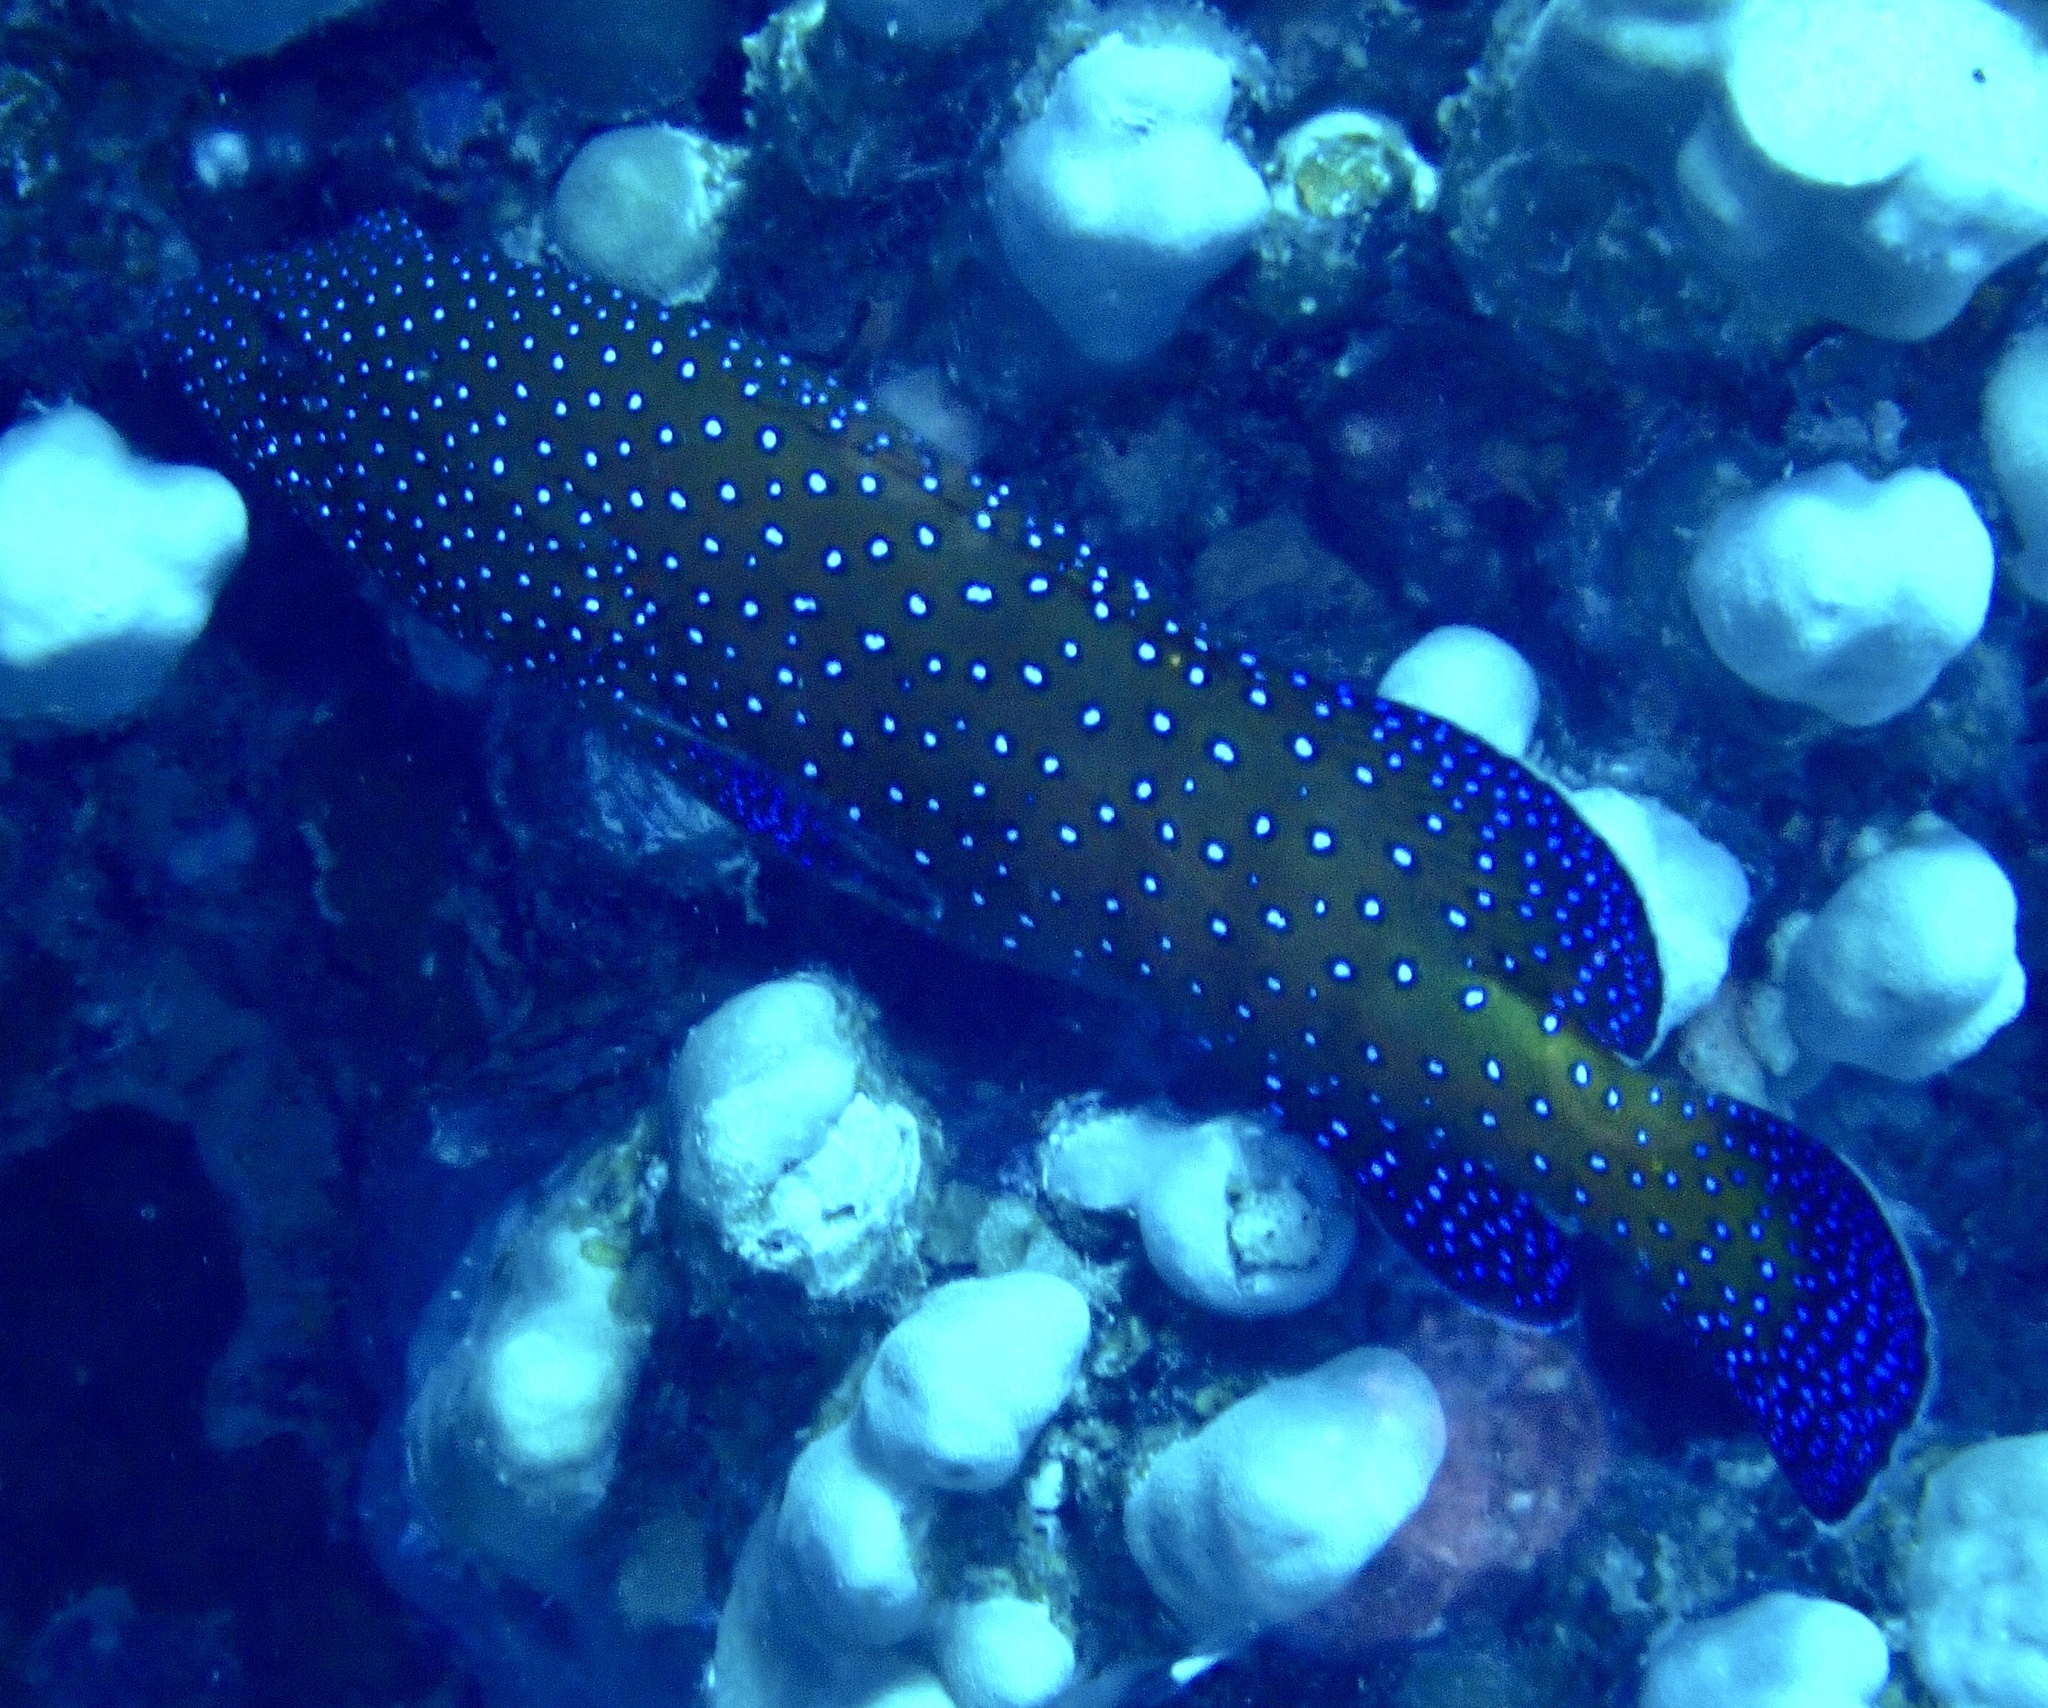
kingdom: Animalia
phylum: Chordata
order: Perciformes
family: Serranidae
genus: Cephalopholis
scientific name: Cephalopholis argus
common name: Peacock grouper
